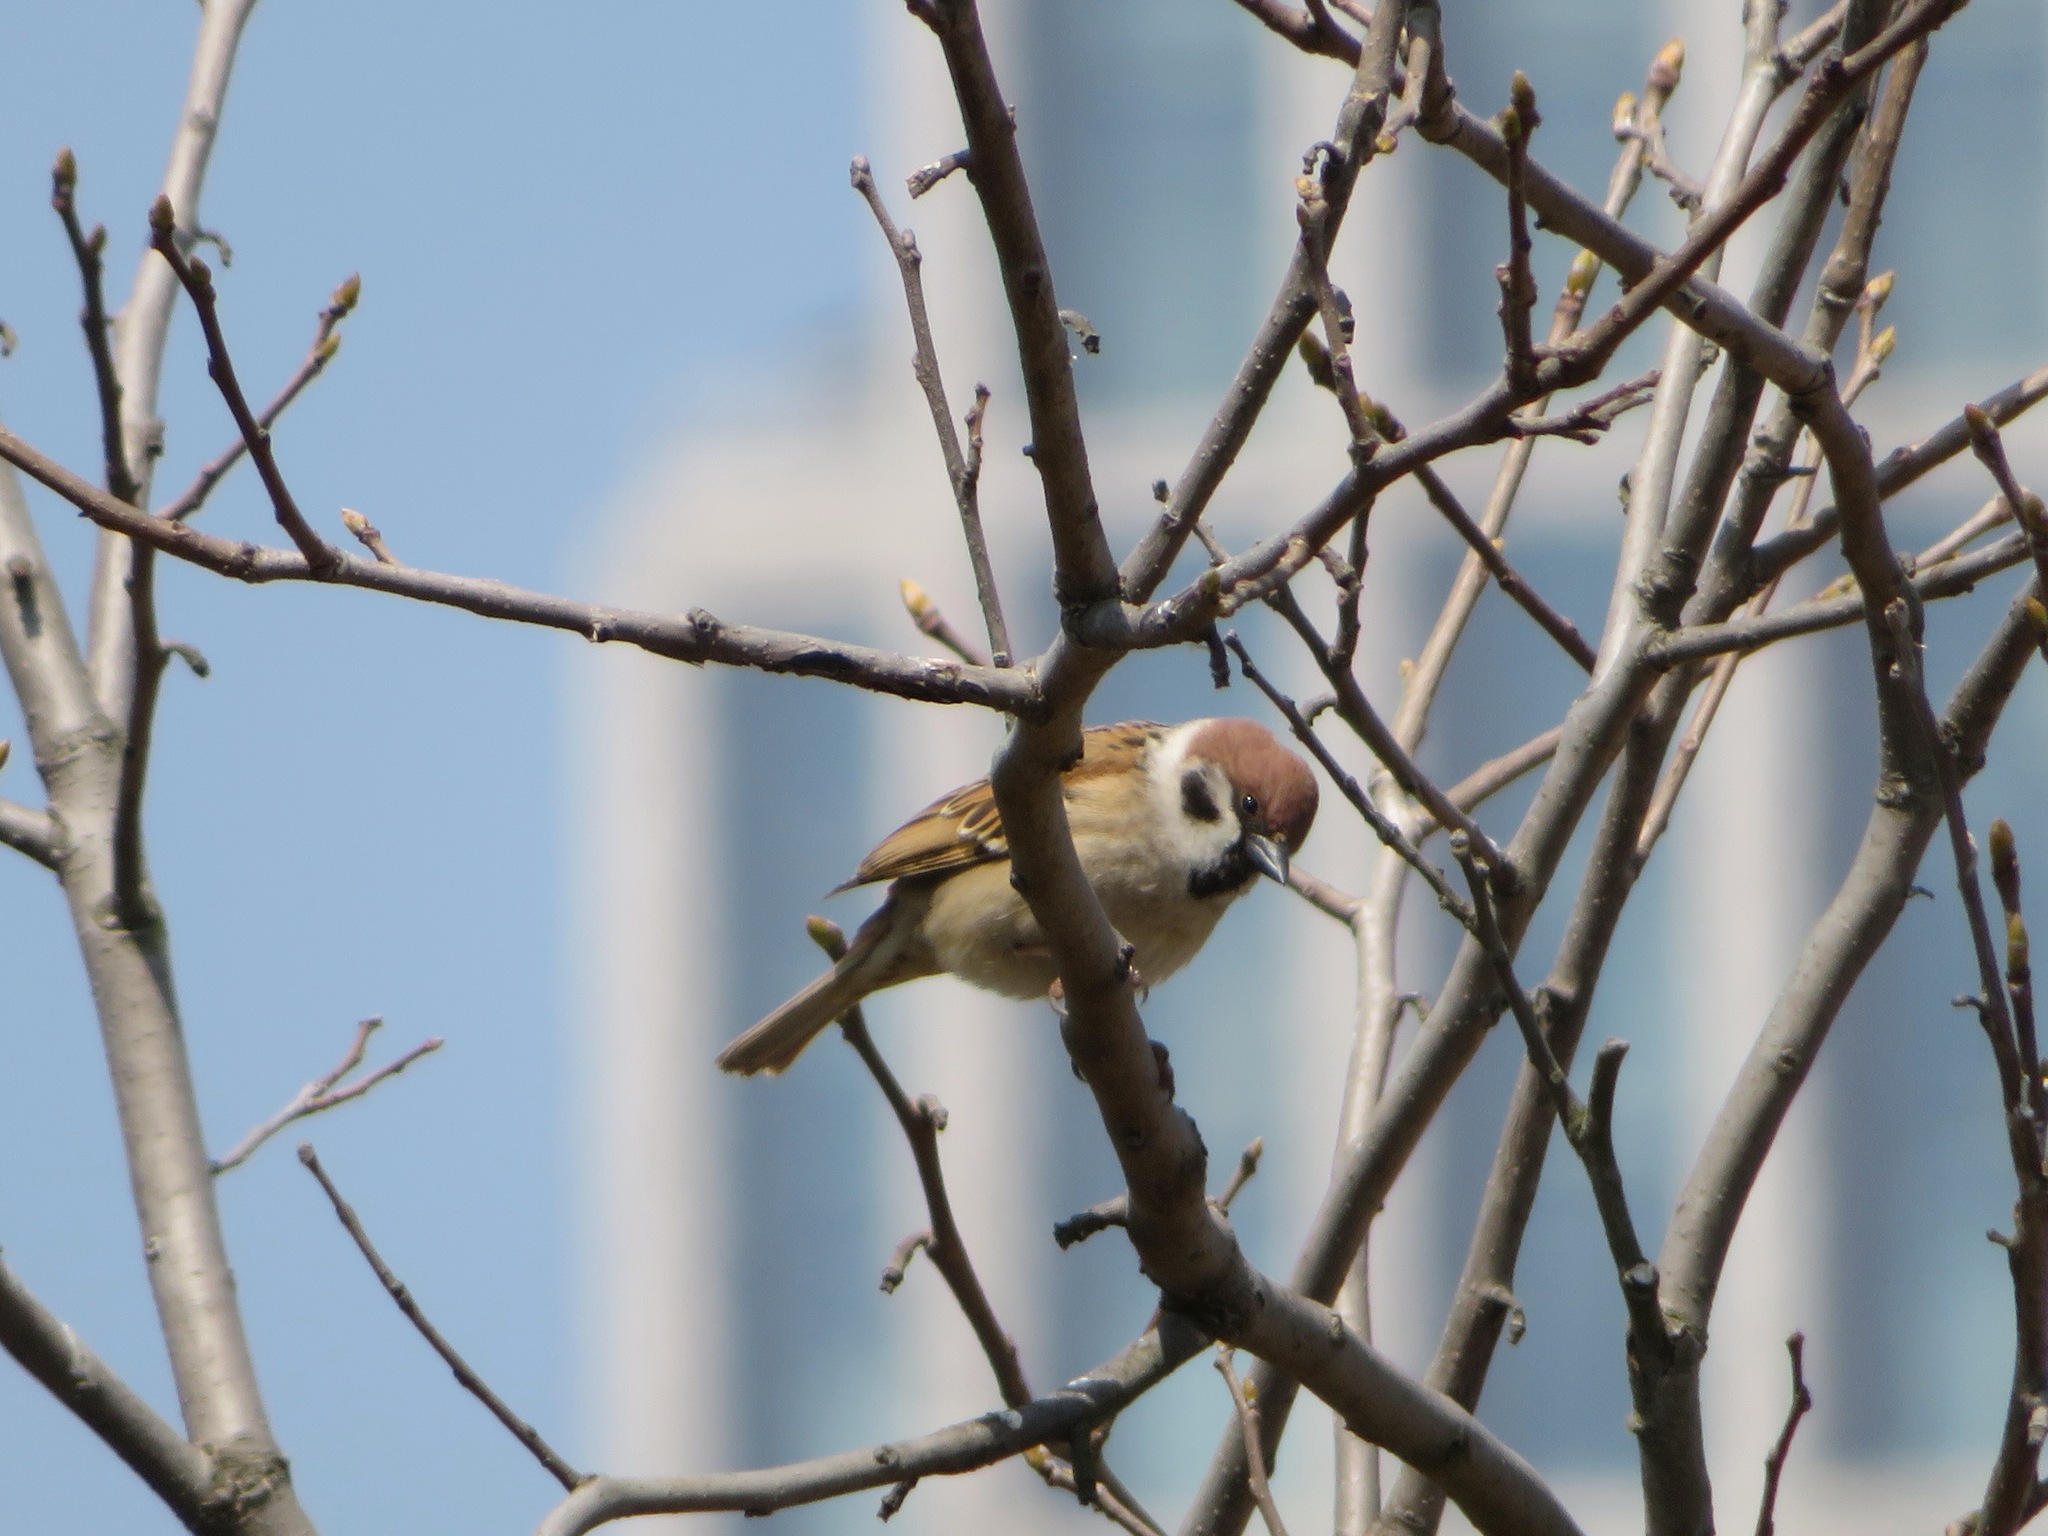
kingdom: Animalia
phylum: Chordata
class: Aves
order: Passeriformes
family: Passeridae
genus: Passer
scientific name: Passer montanus
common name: Eurasian tree sparrow
